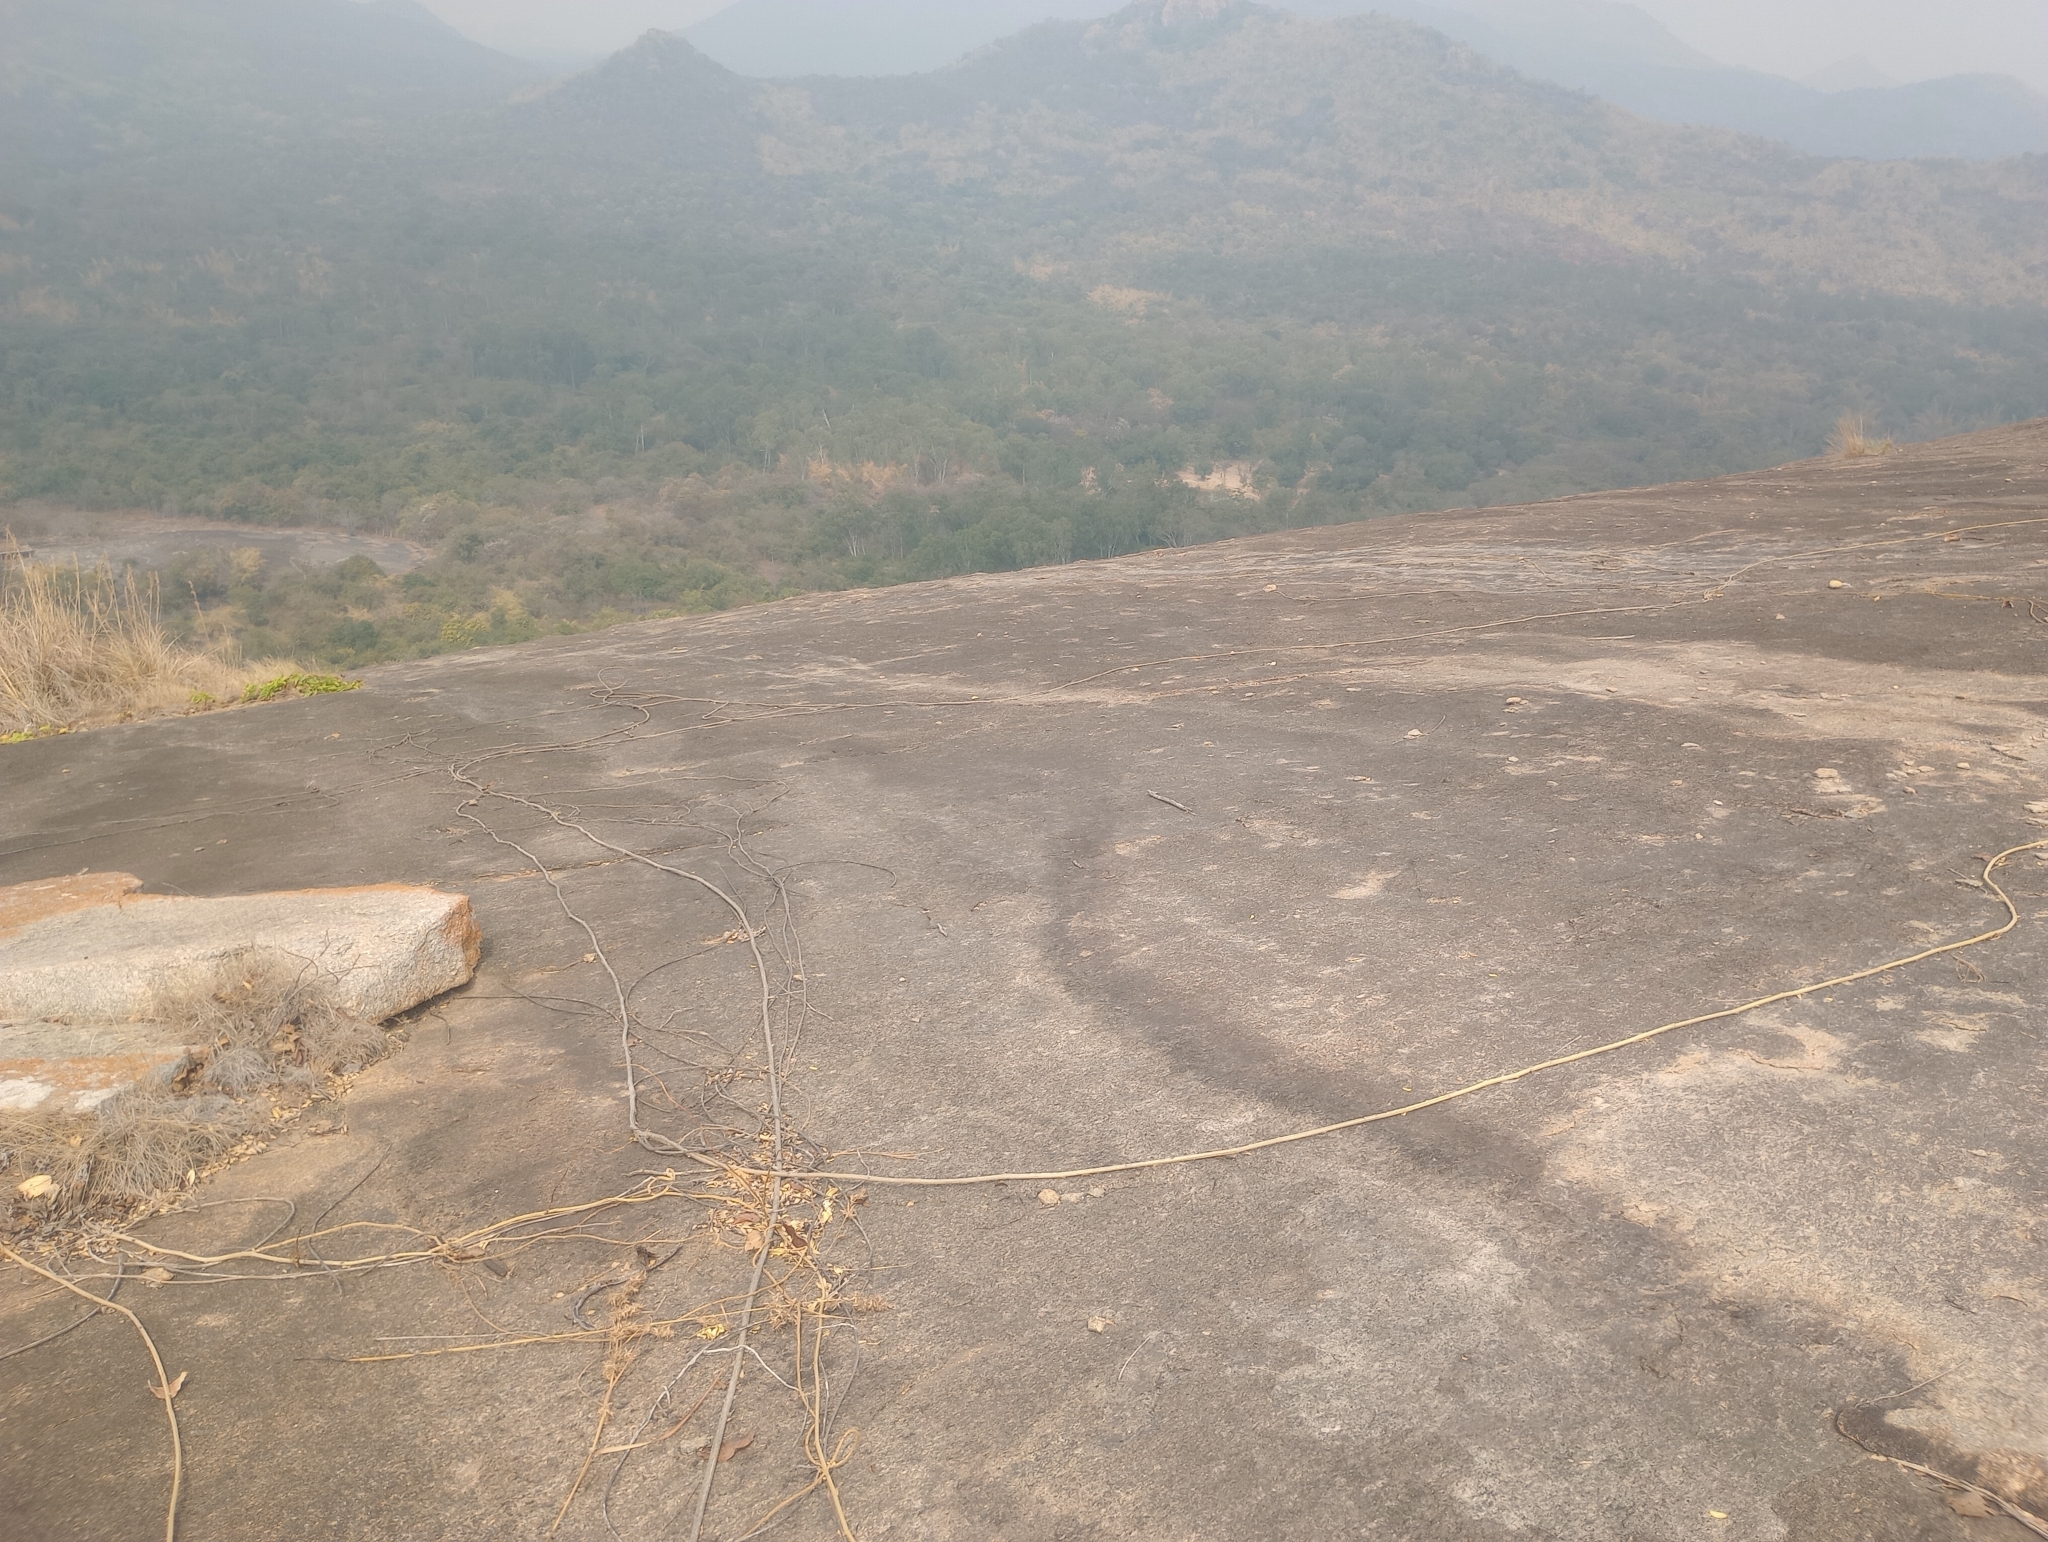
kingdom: Plantae
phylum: Tracheophyta
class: Magnoliopsida
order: Solanales
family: Convolvulaceae
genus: Ipomoea
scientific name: Ipomoea staphylina
